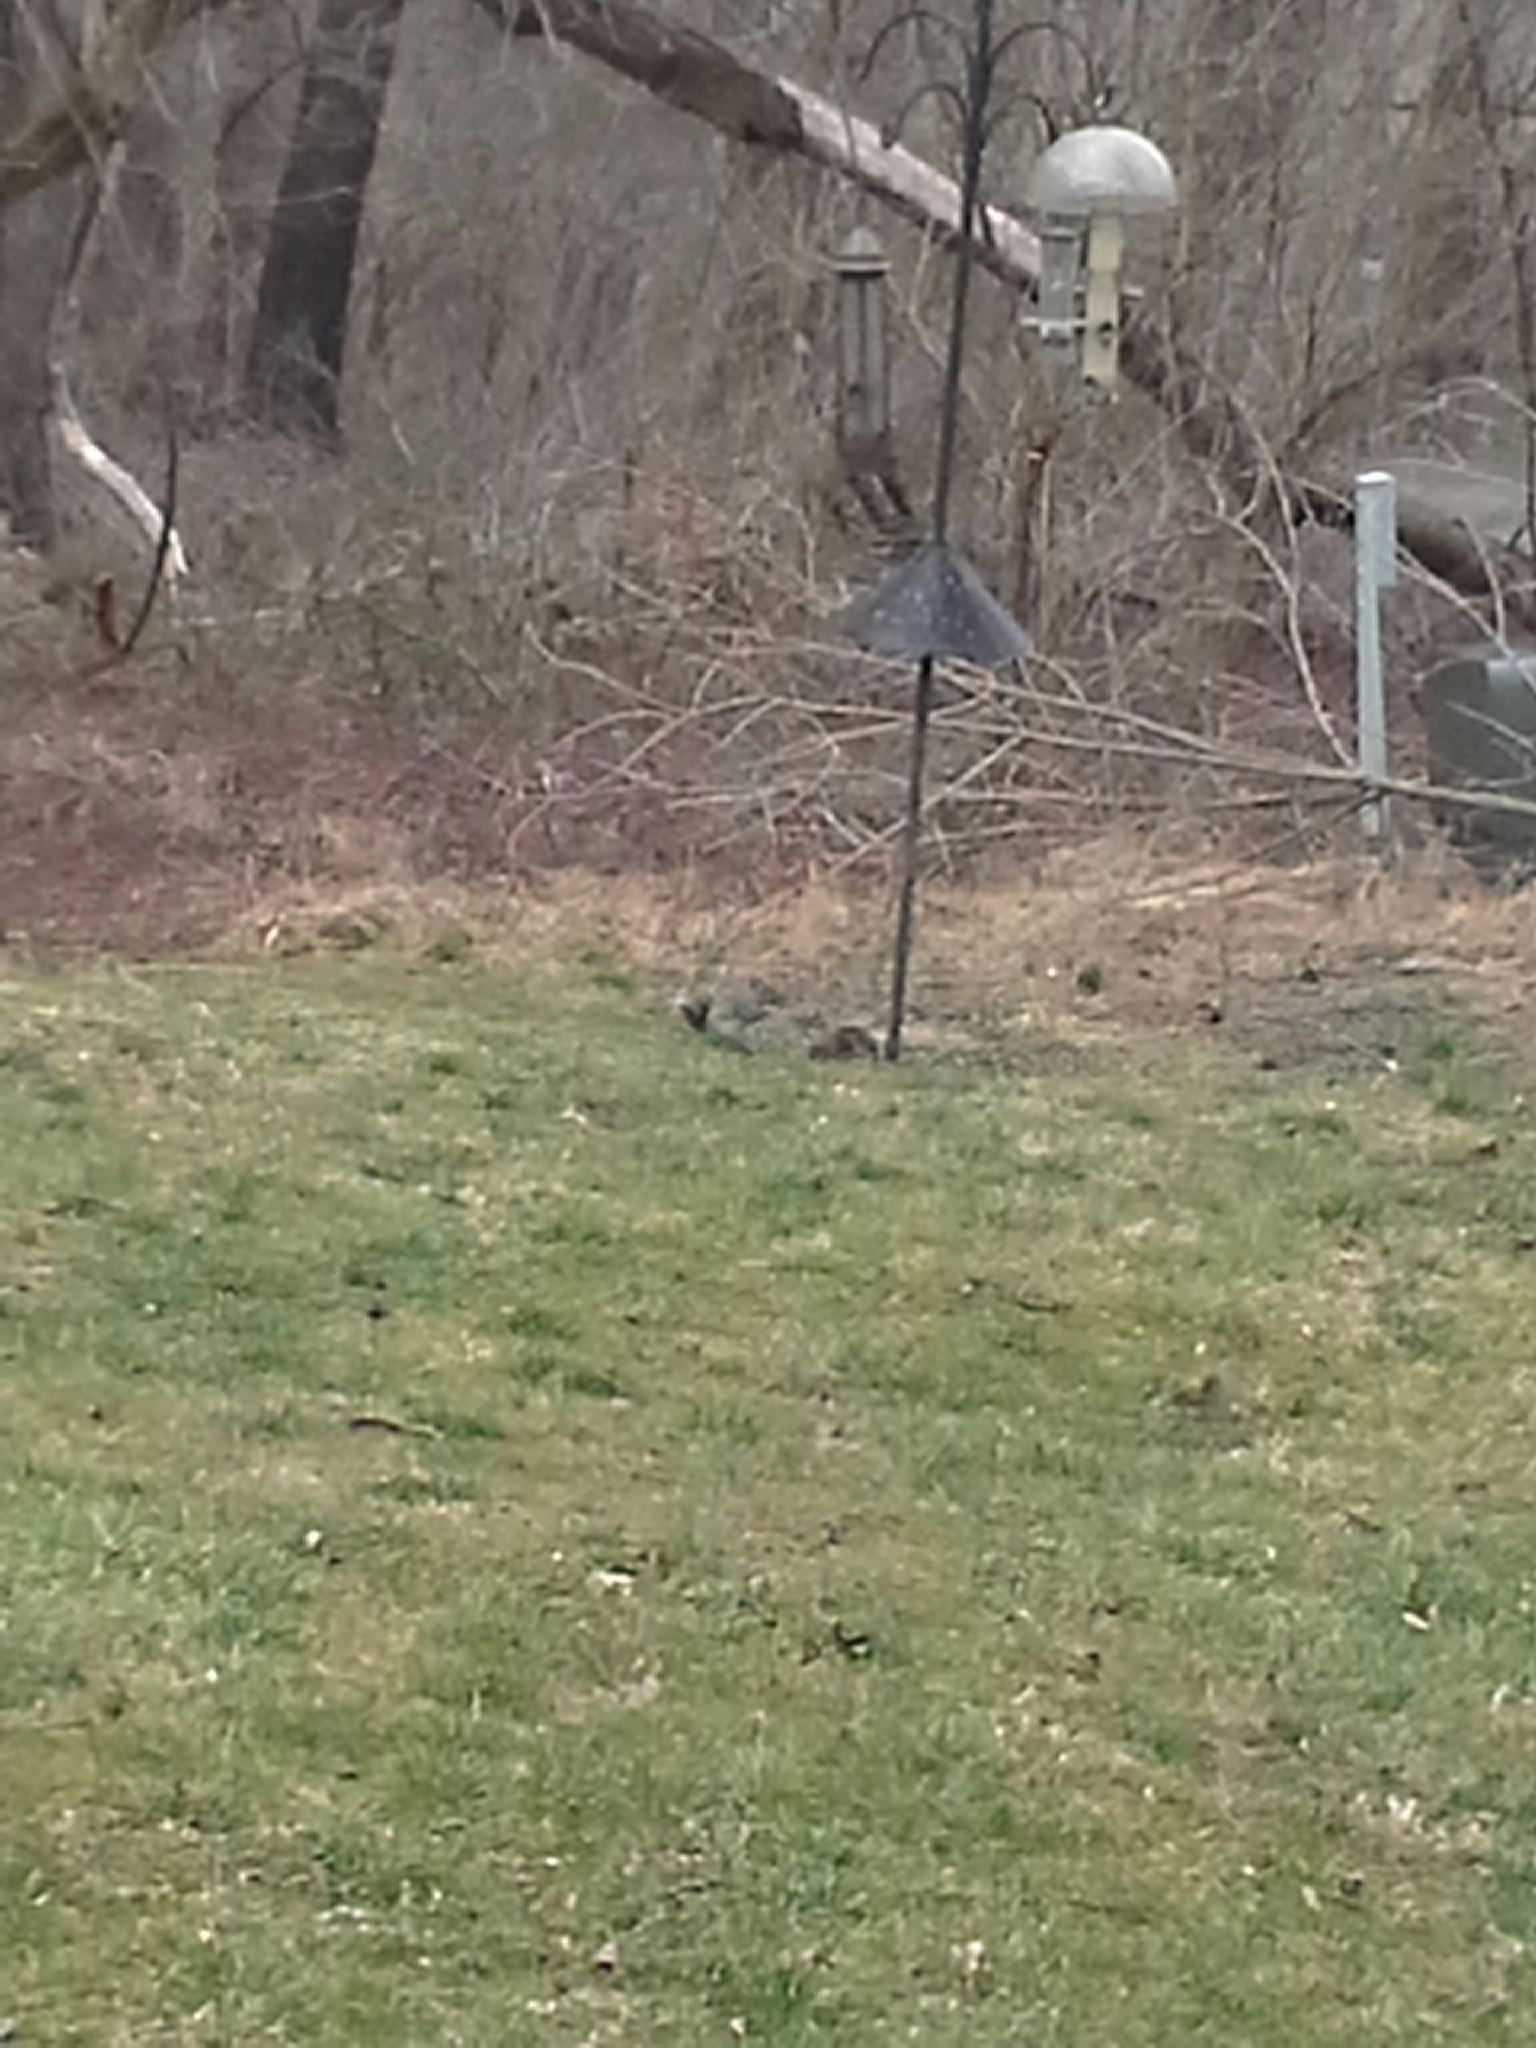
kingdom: Animalia
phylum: Chordata
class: Mammalia
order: Rodentia
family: Sciuridae
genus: Sciurus
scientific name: Sciurus carolinensis
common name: Eastern gray squirrel
